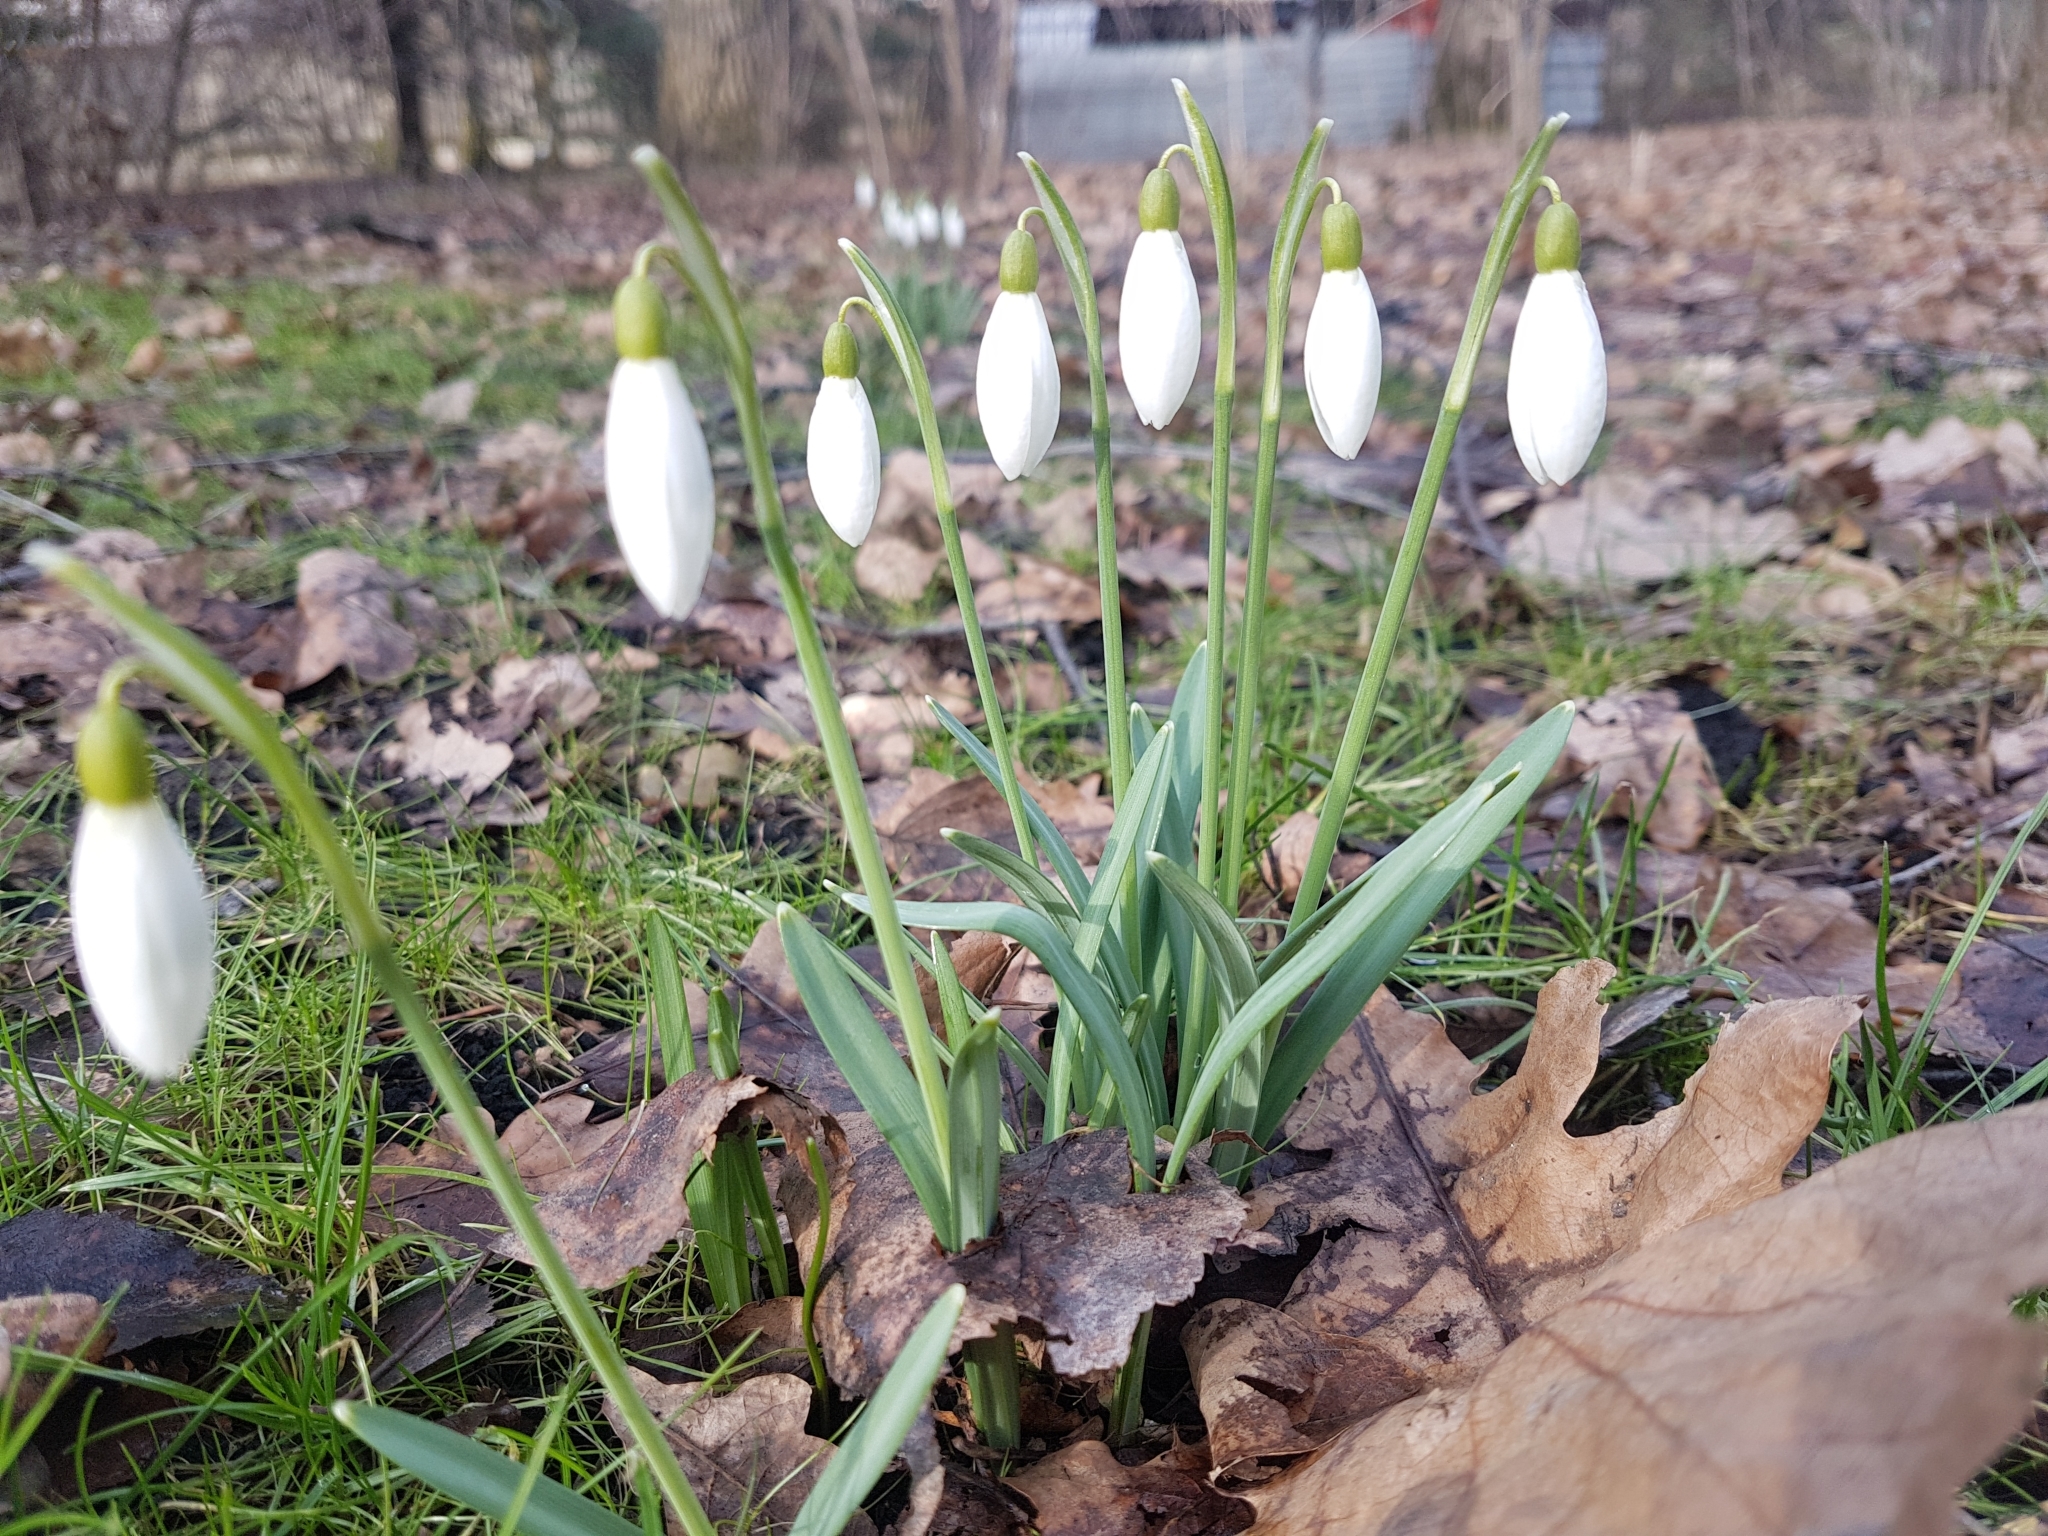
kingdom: Plantae
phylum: Tracheophyta
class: Liliopsida
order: Asparagales
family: Amaryllidaceae
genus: Galanthus
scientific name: Galanthus nivalis
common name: Snowdrop
